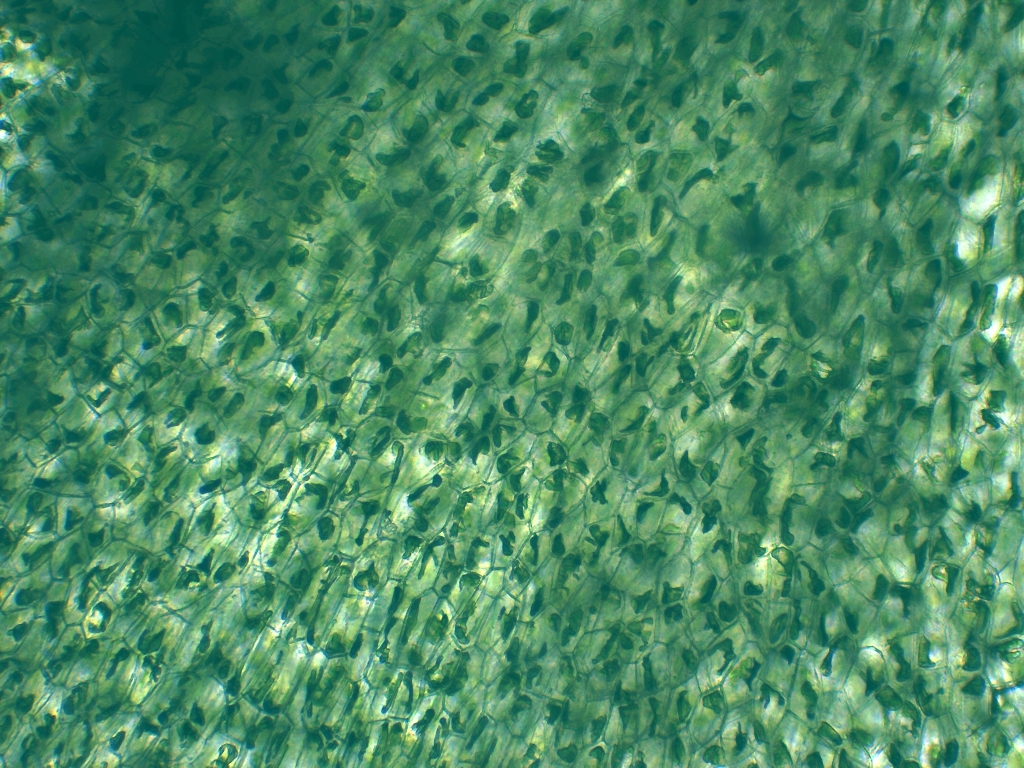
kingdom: Plantae
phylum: Anthocerotophyta
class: Anthocerotopsida
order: Phymatocerotales
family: Phymatocerotaceae
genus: Phymatoceros
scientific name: Phymatoceros bulbiculosus
